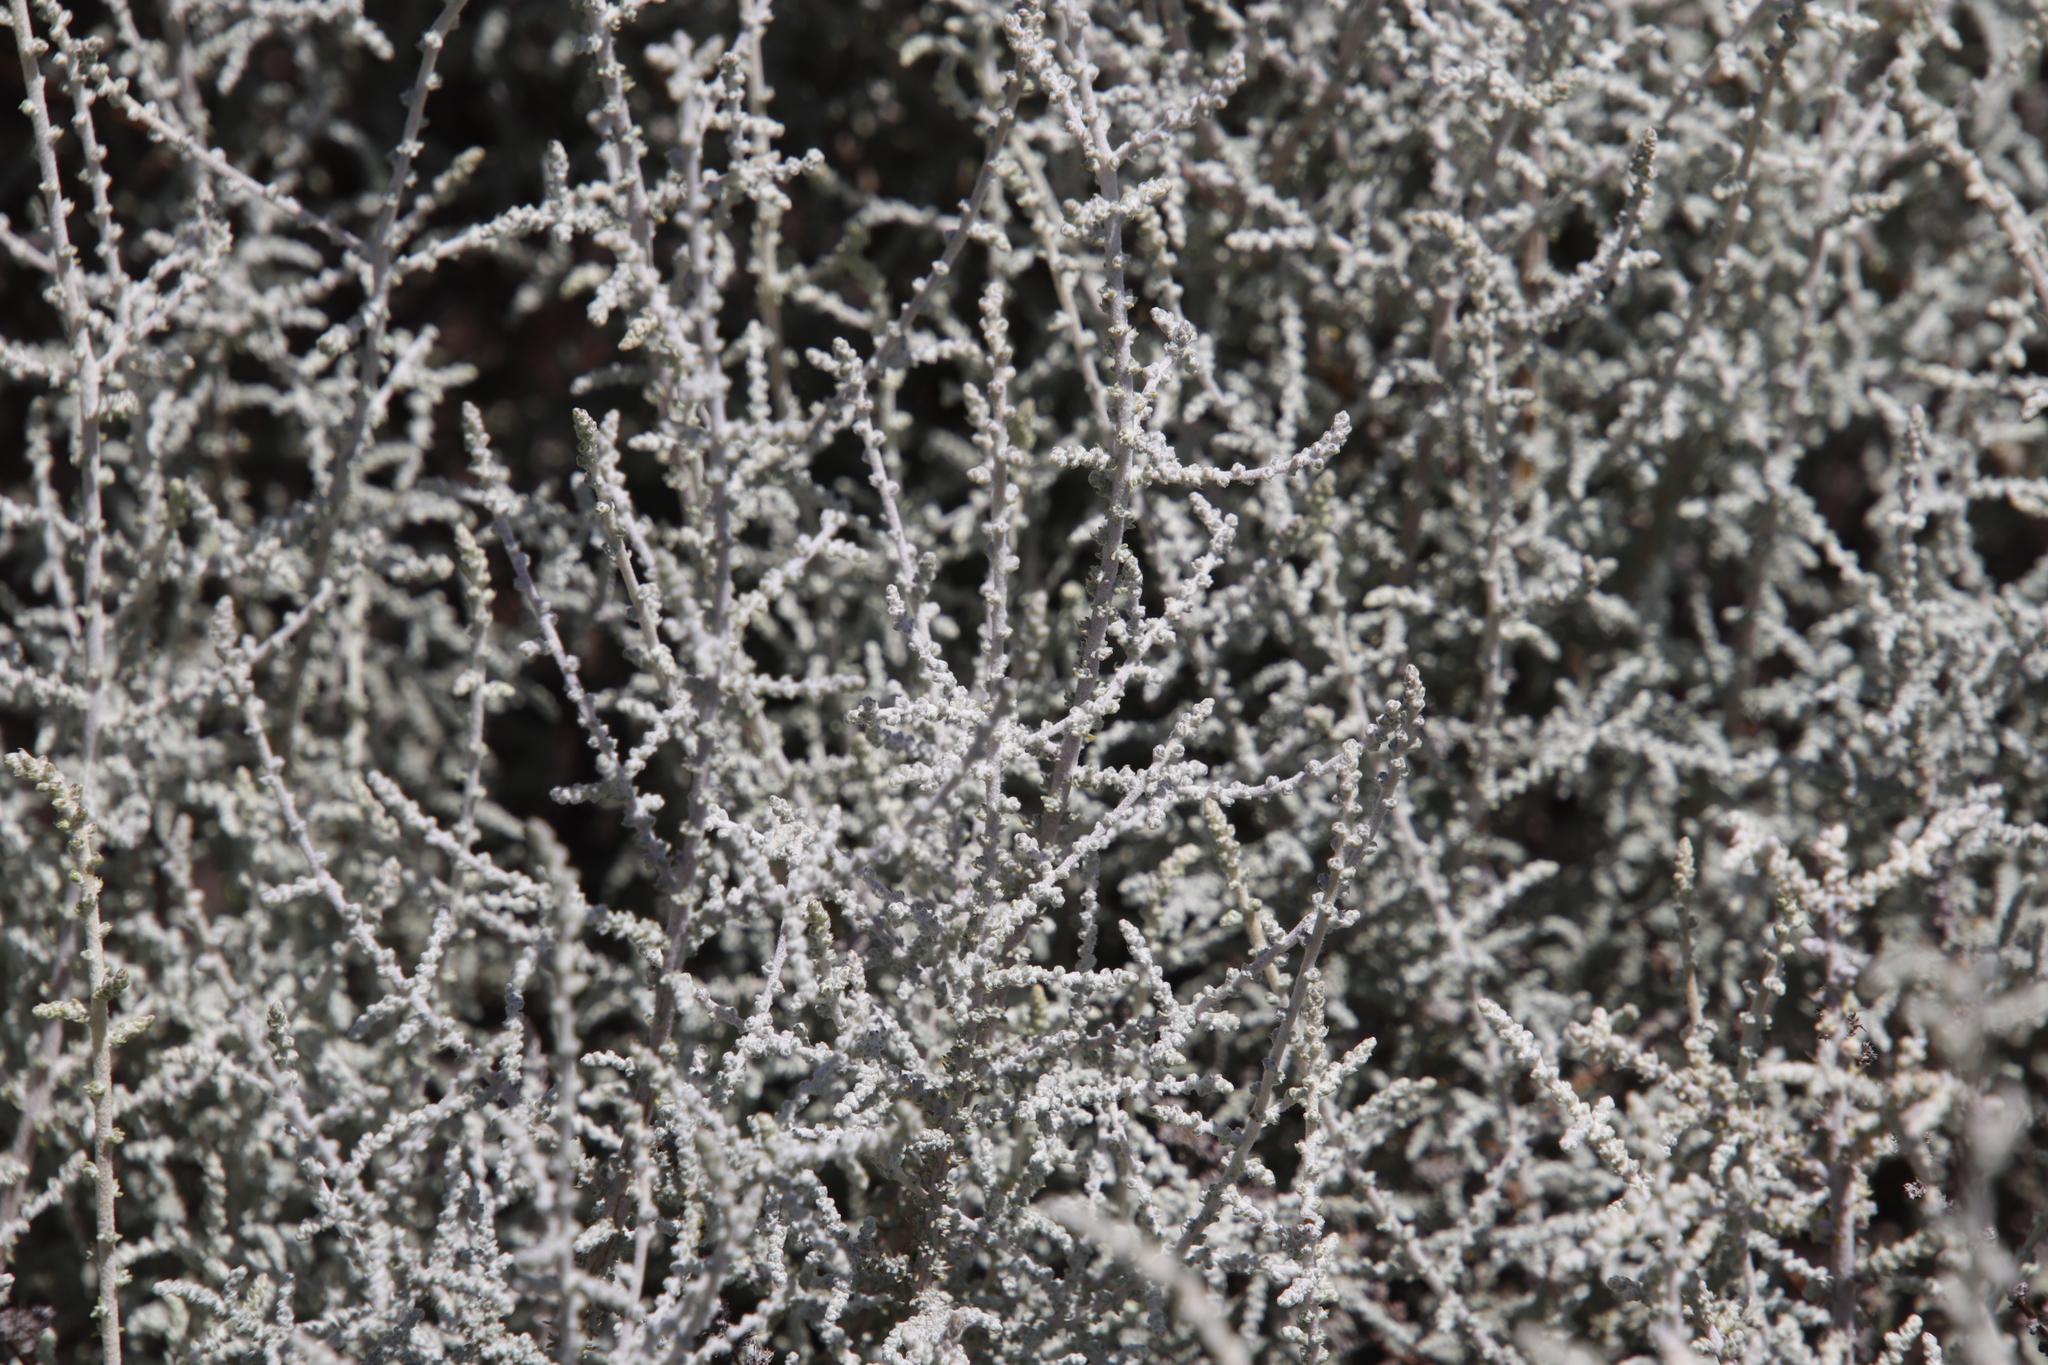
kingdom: Plantae
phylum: Tracheophyta
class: Magnoliopsida
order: Asterales
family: Asteraceae
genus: Seriphium
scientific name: Seriphium plumosum
